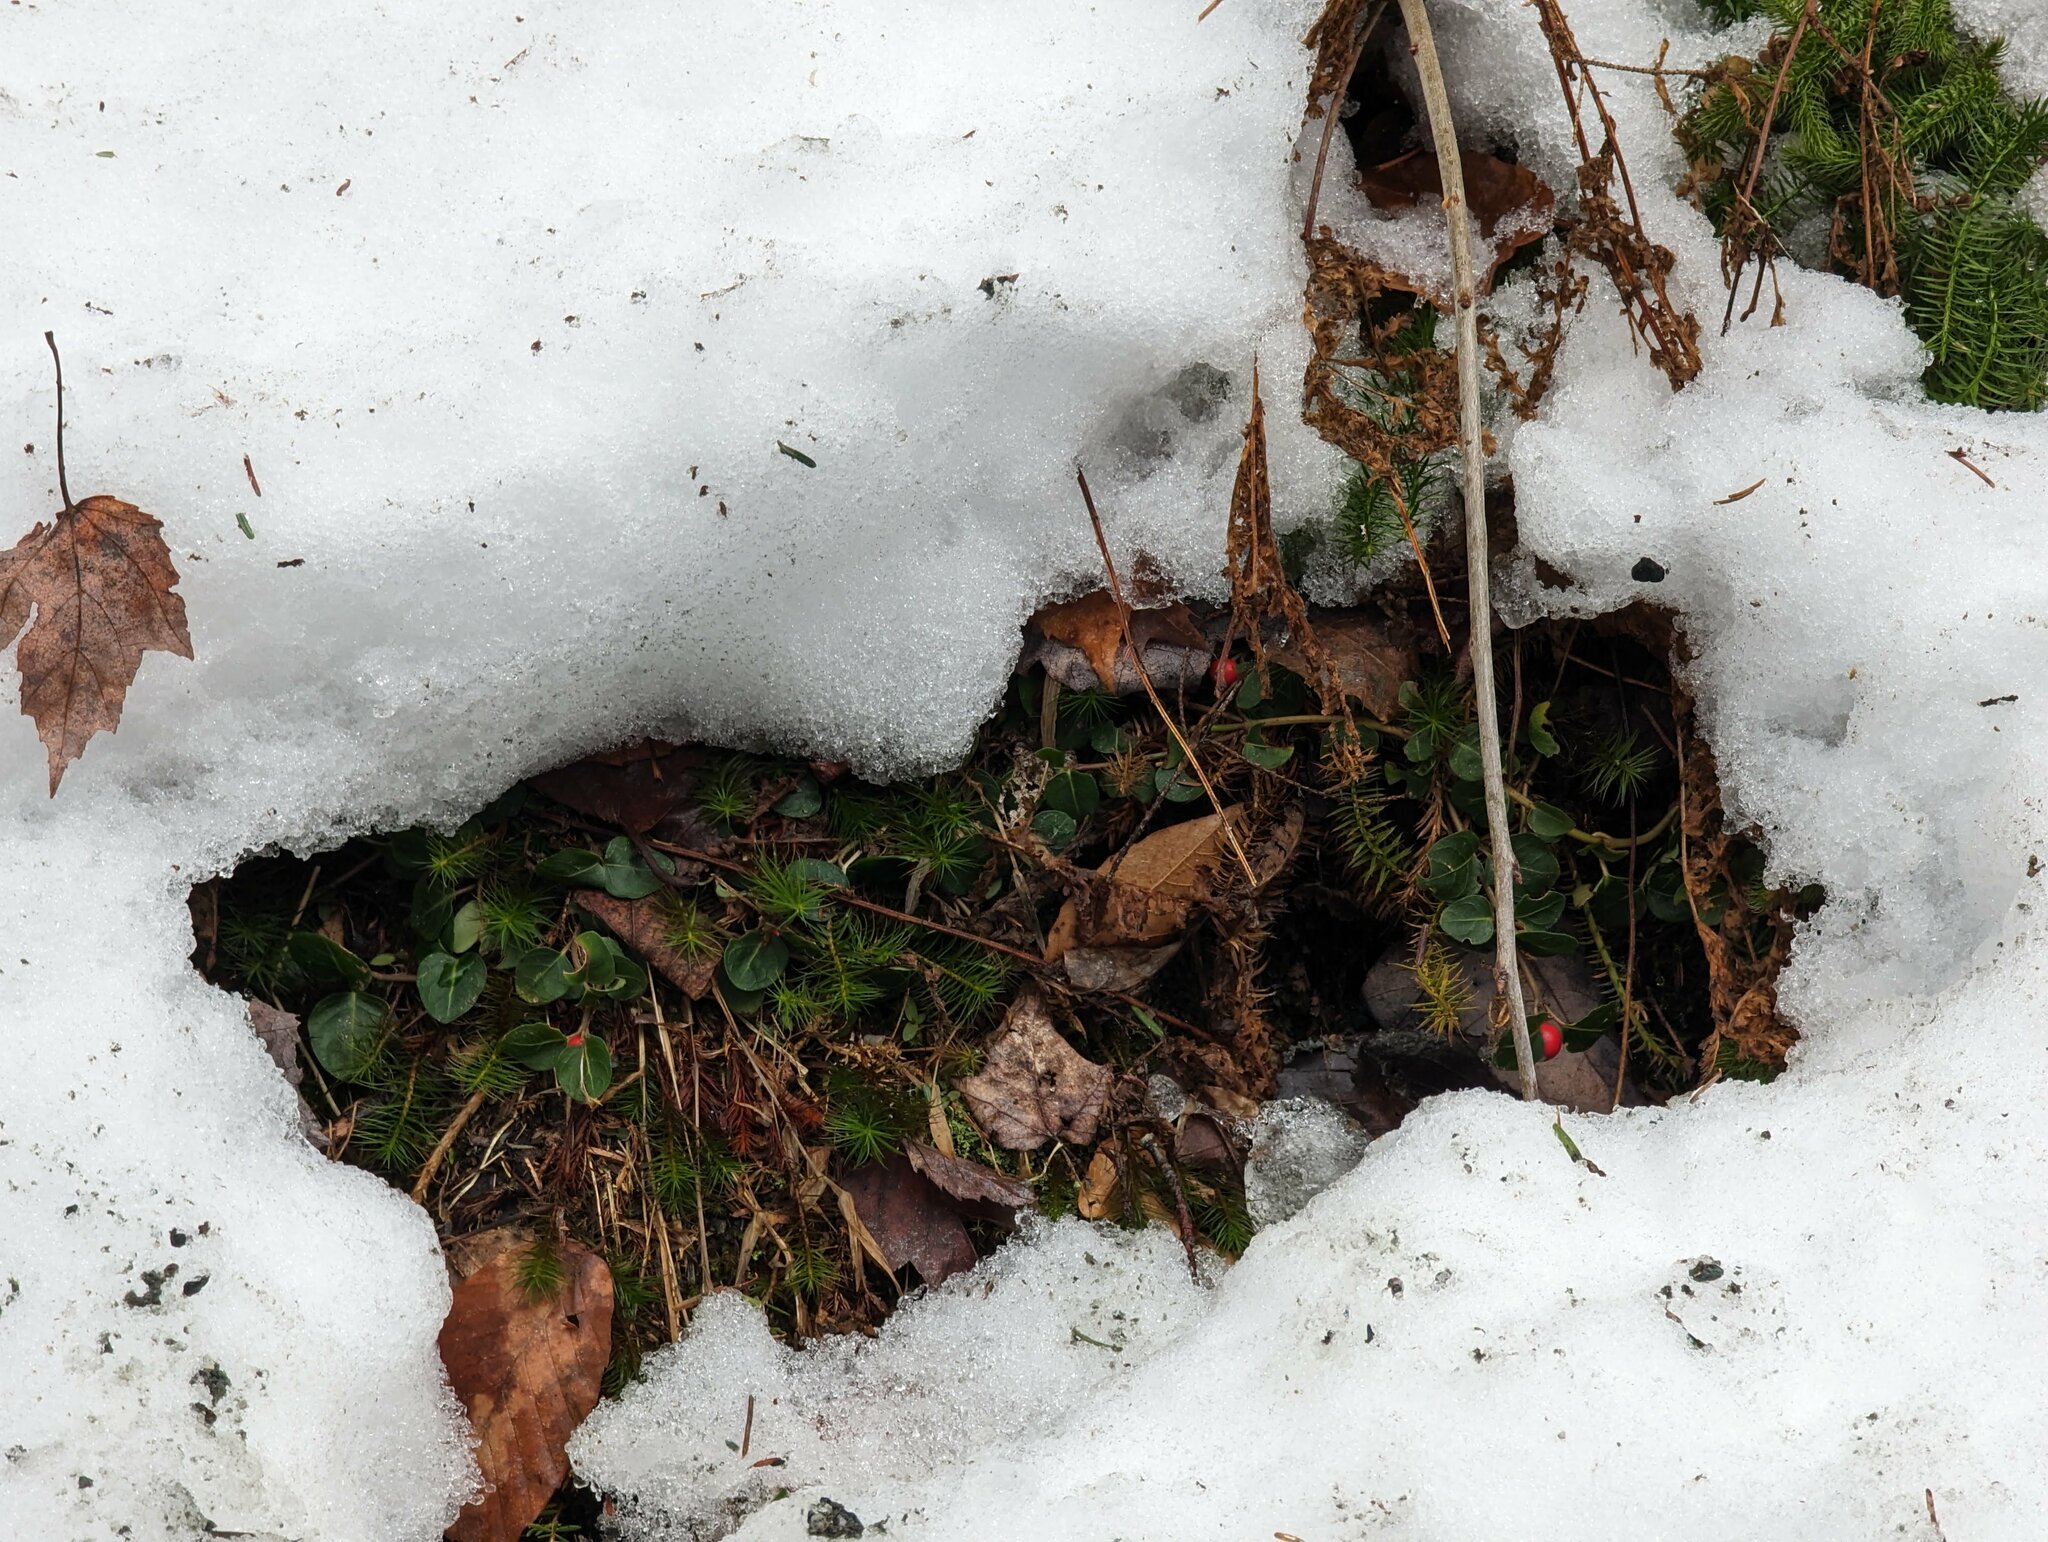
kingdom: Plantae
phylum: Tracheophyta
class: Magnoliopsida
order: Gentianales
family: Rubiaceae
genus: Mitchella
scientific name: Mitchella repens
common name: Partridge-berry
